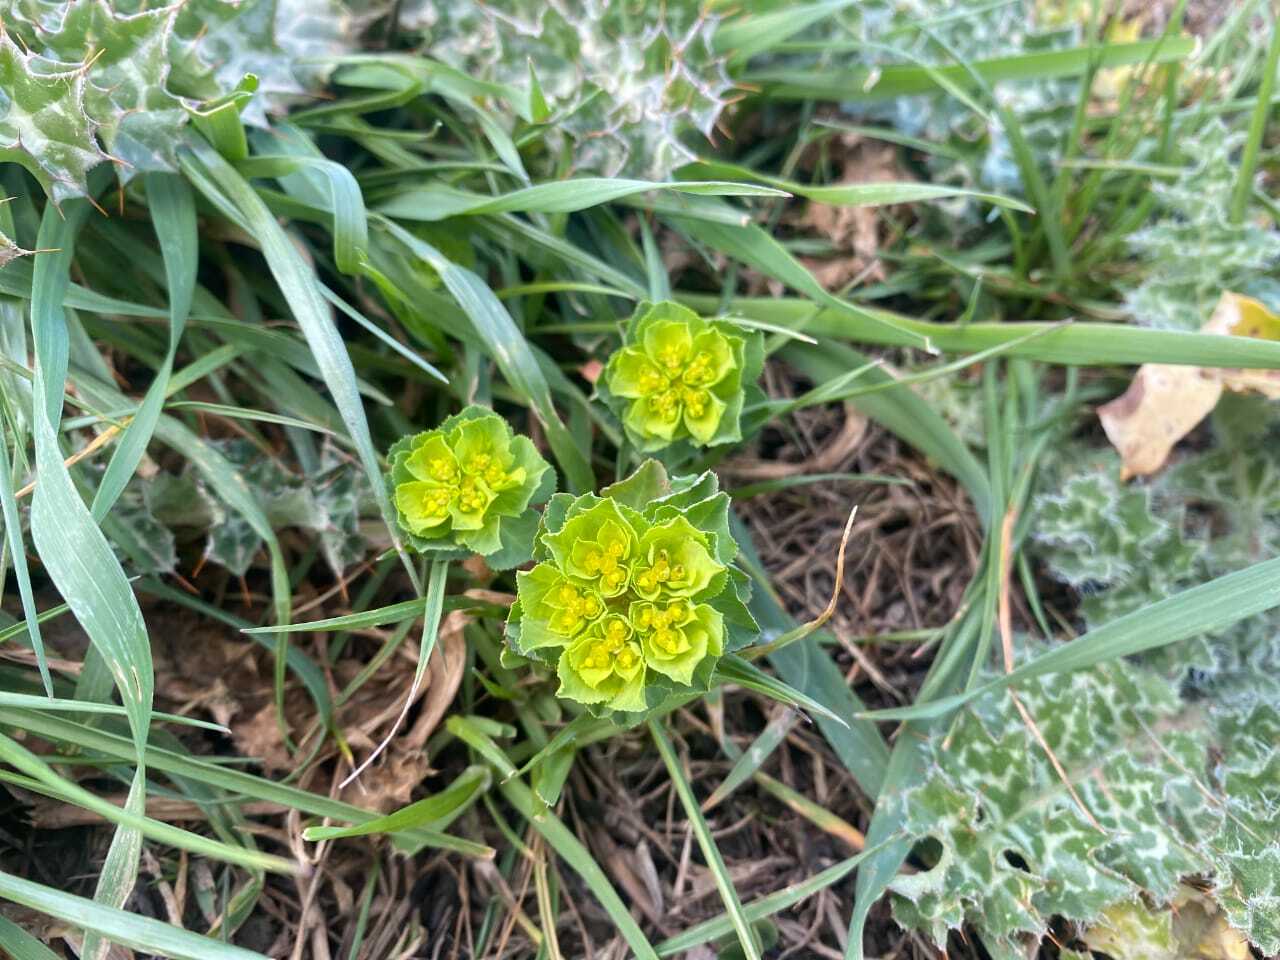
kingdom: Plantae
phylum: Tracheophyta
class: Magnoliopsida
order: Malpighiales
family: Euphorbiaceae
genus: Euphorbia
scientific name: Euphorbia helioscopia
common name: Sun spurge
